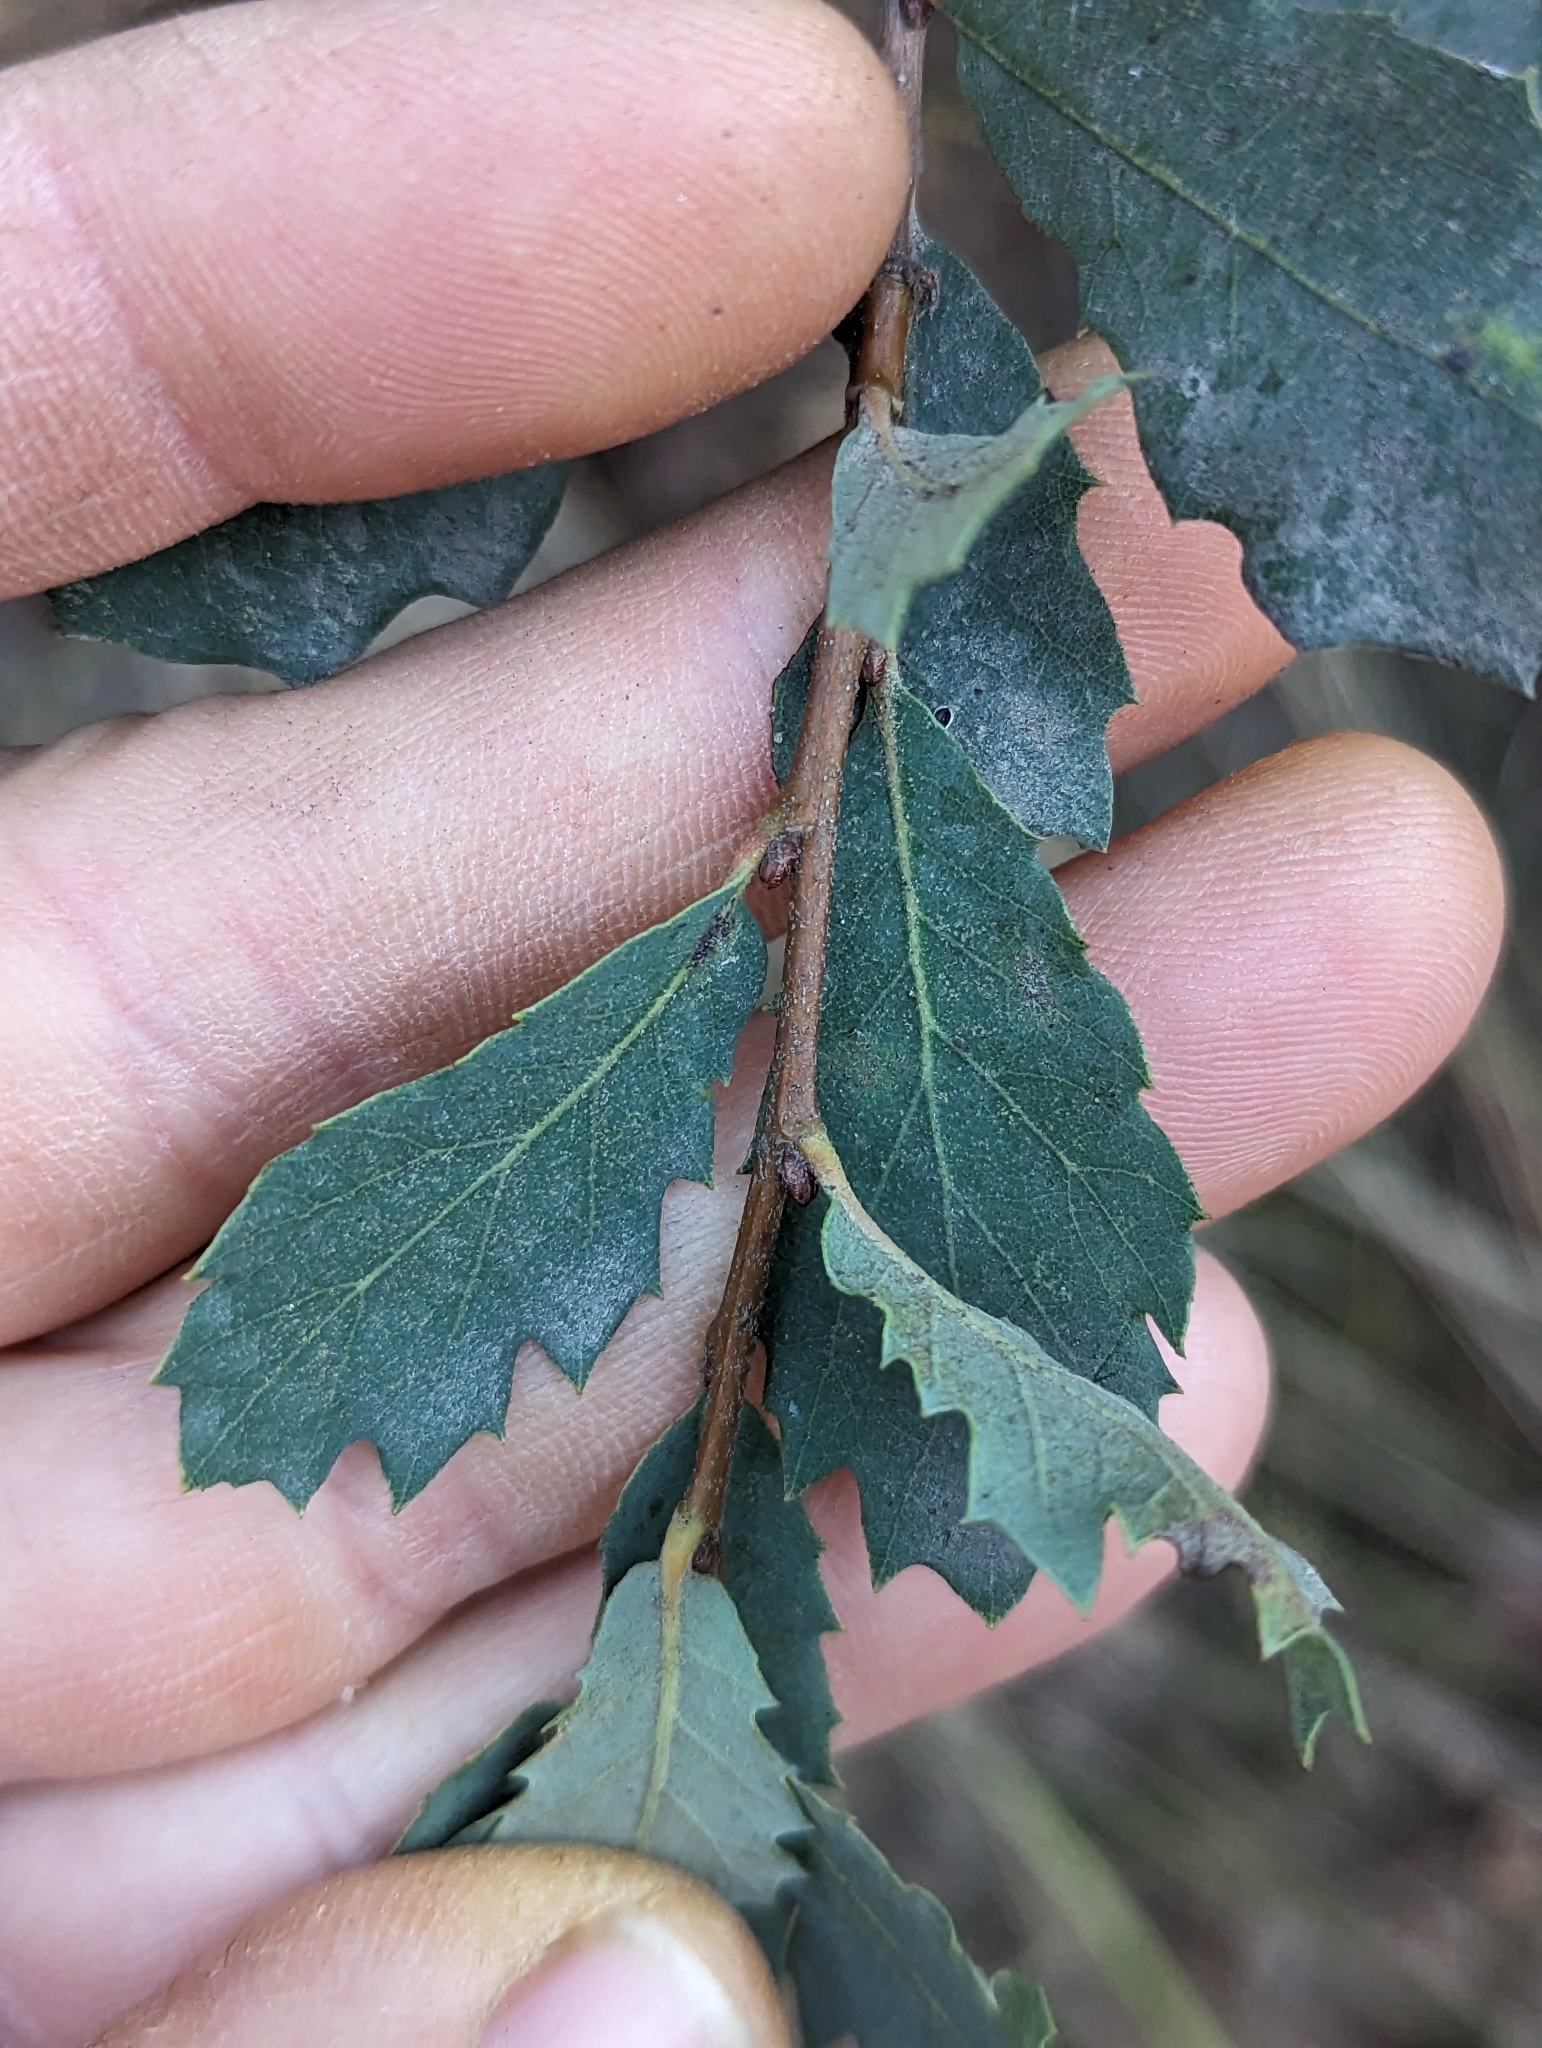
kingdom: Plantae
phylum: Tracheophyta
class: Magnoliopsida
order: Fagales
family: Fagaceae
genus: Quercus
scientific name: Quercus engelmannii
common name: Engelmann oak
